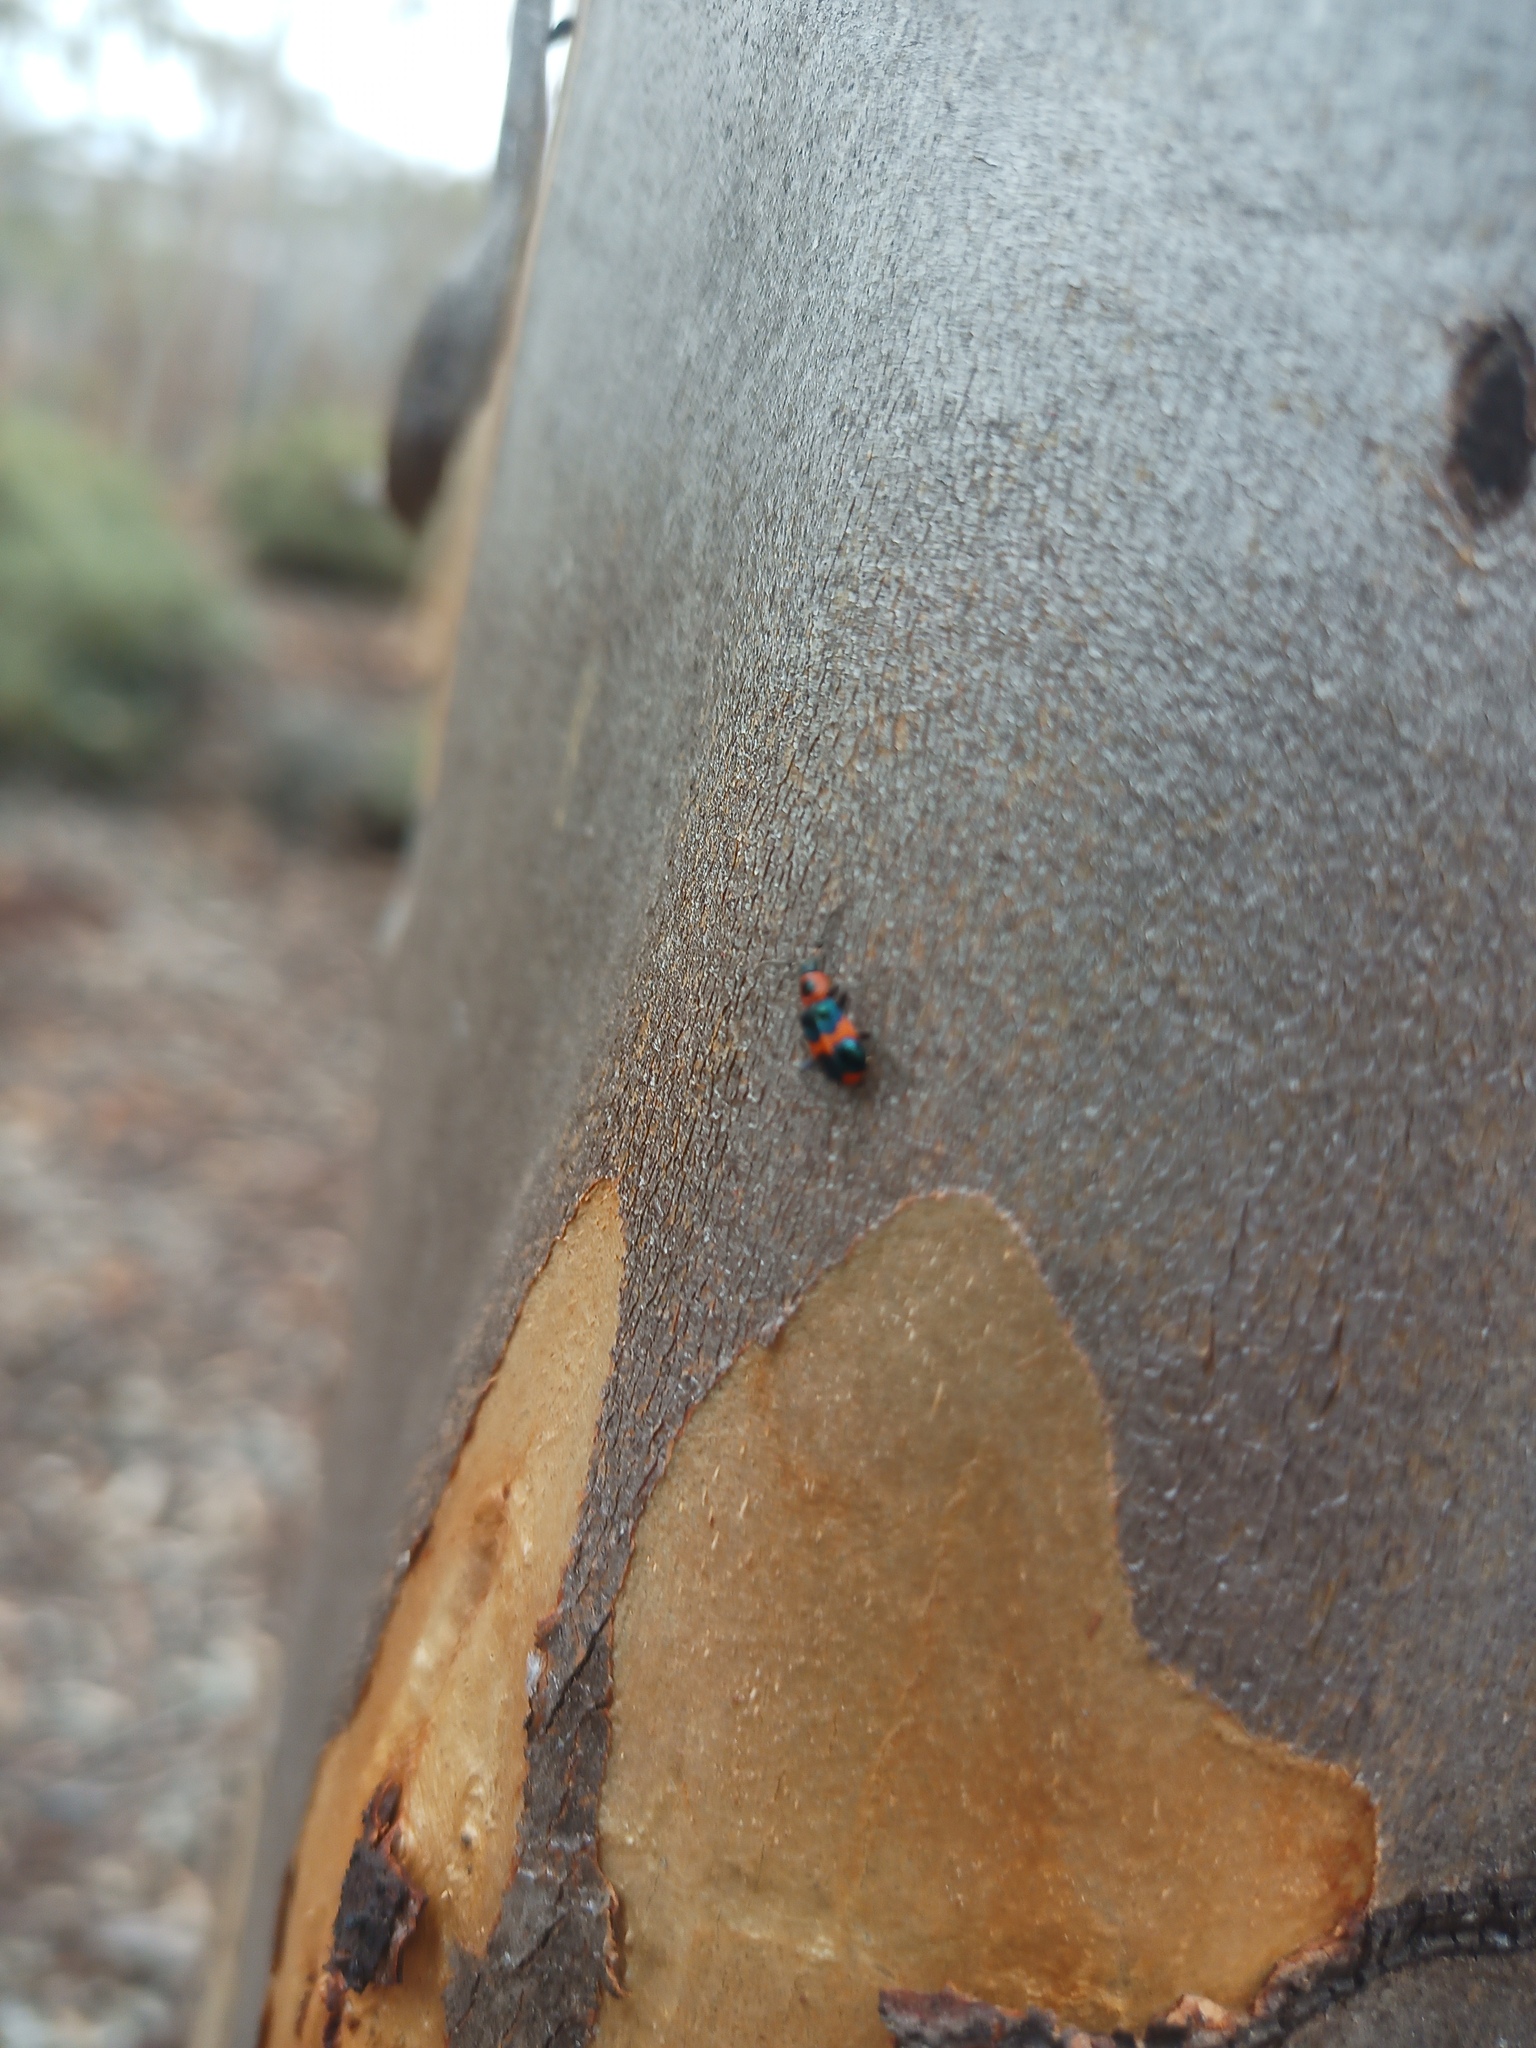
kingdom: Animalia
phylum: Arthropoda
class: Insecta
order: Coleoptera
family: Melyridae
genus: Dicranolaius
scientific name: Dicranolaius bellulus
